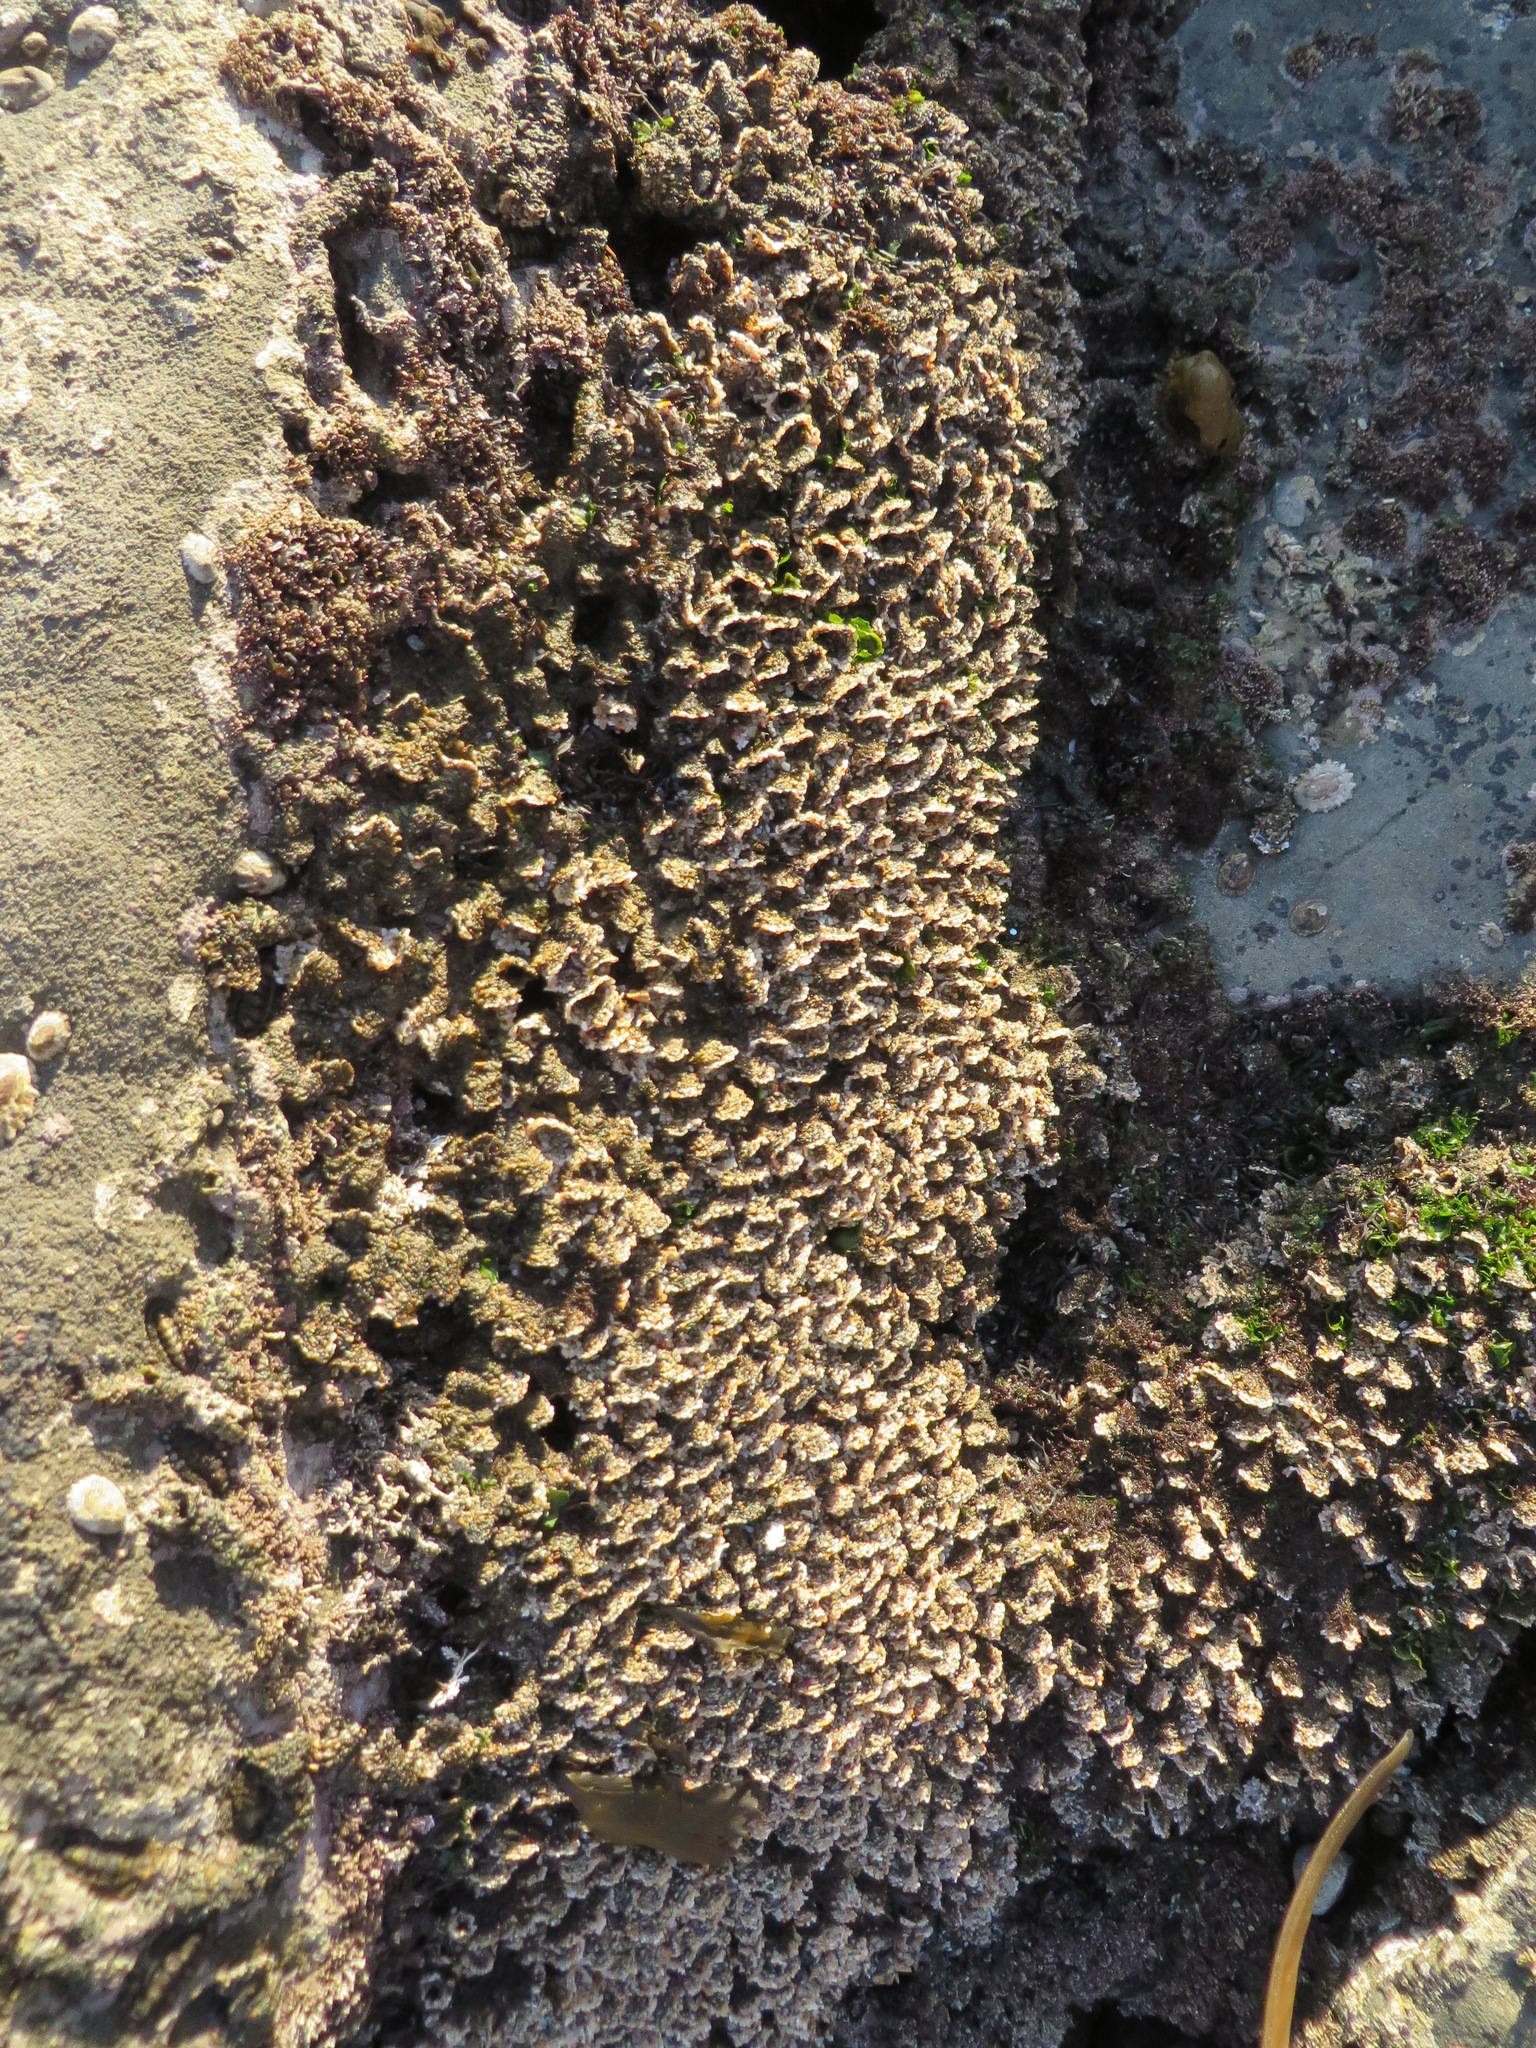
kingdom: Animalia
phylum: Annelida
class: Polychaeta
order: Sabellida
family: Sabellariidae
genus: Phragmatopoma
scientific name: Phragmatopoma californica
